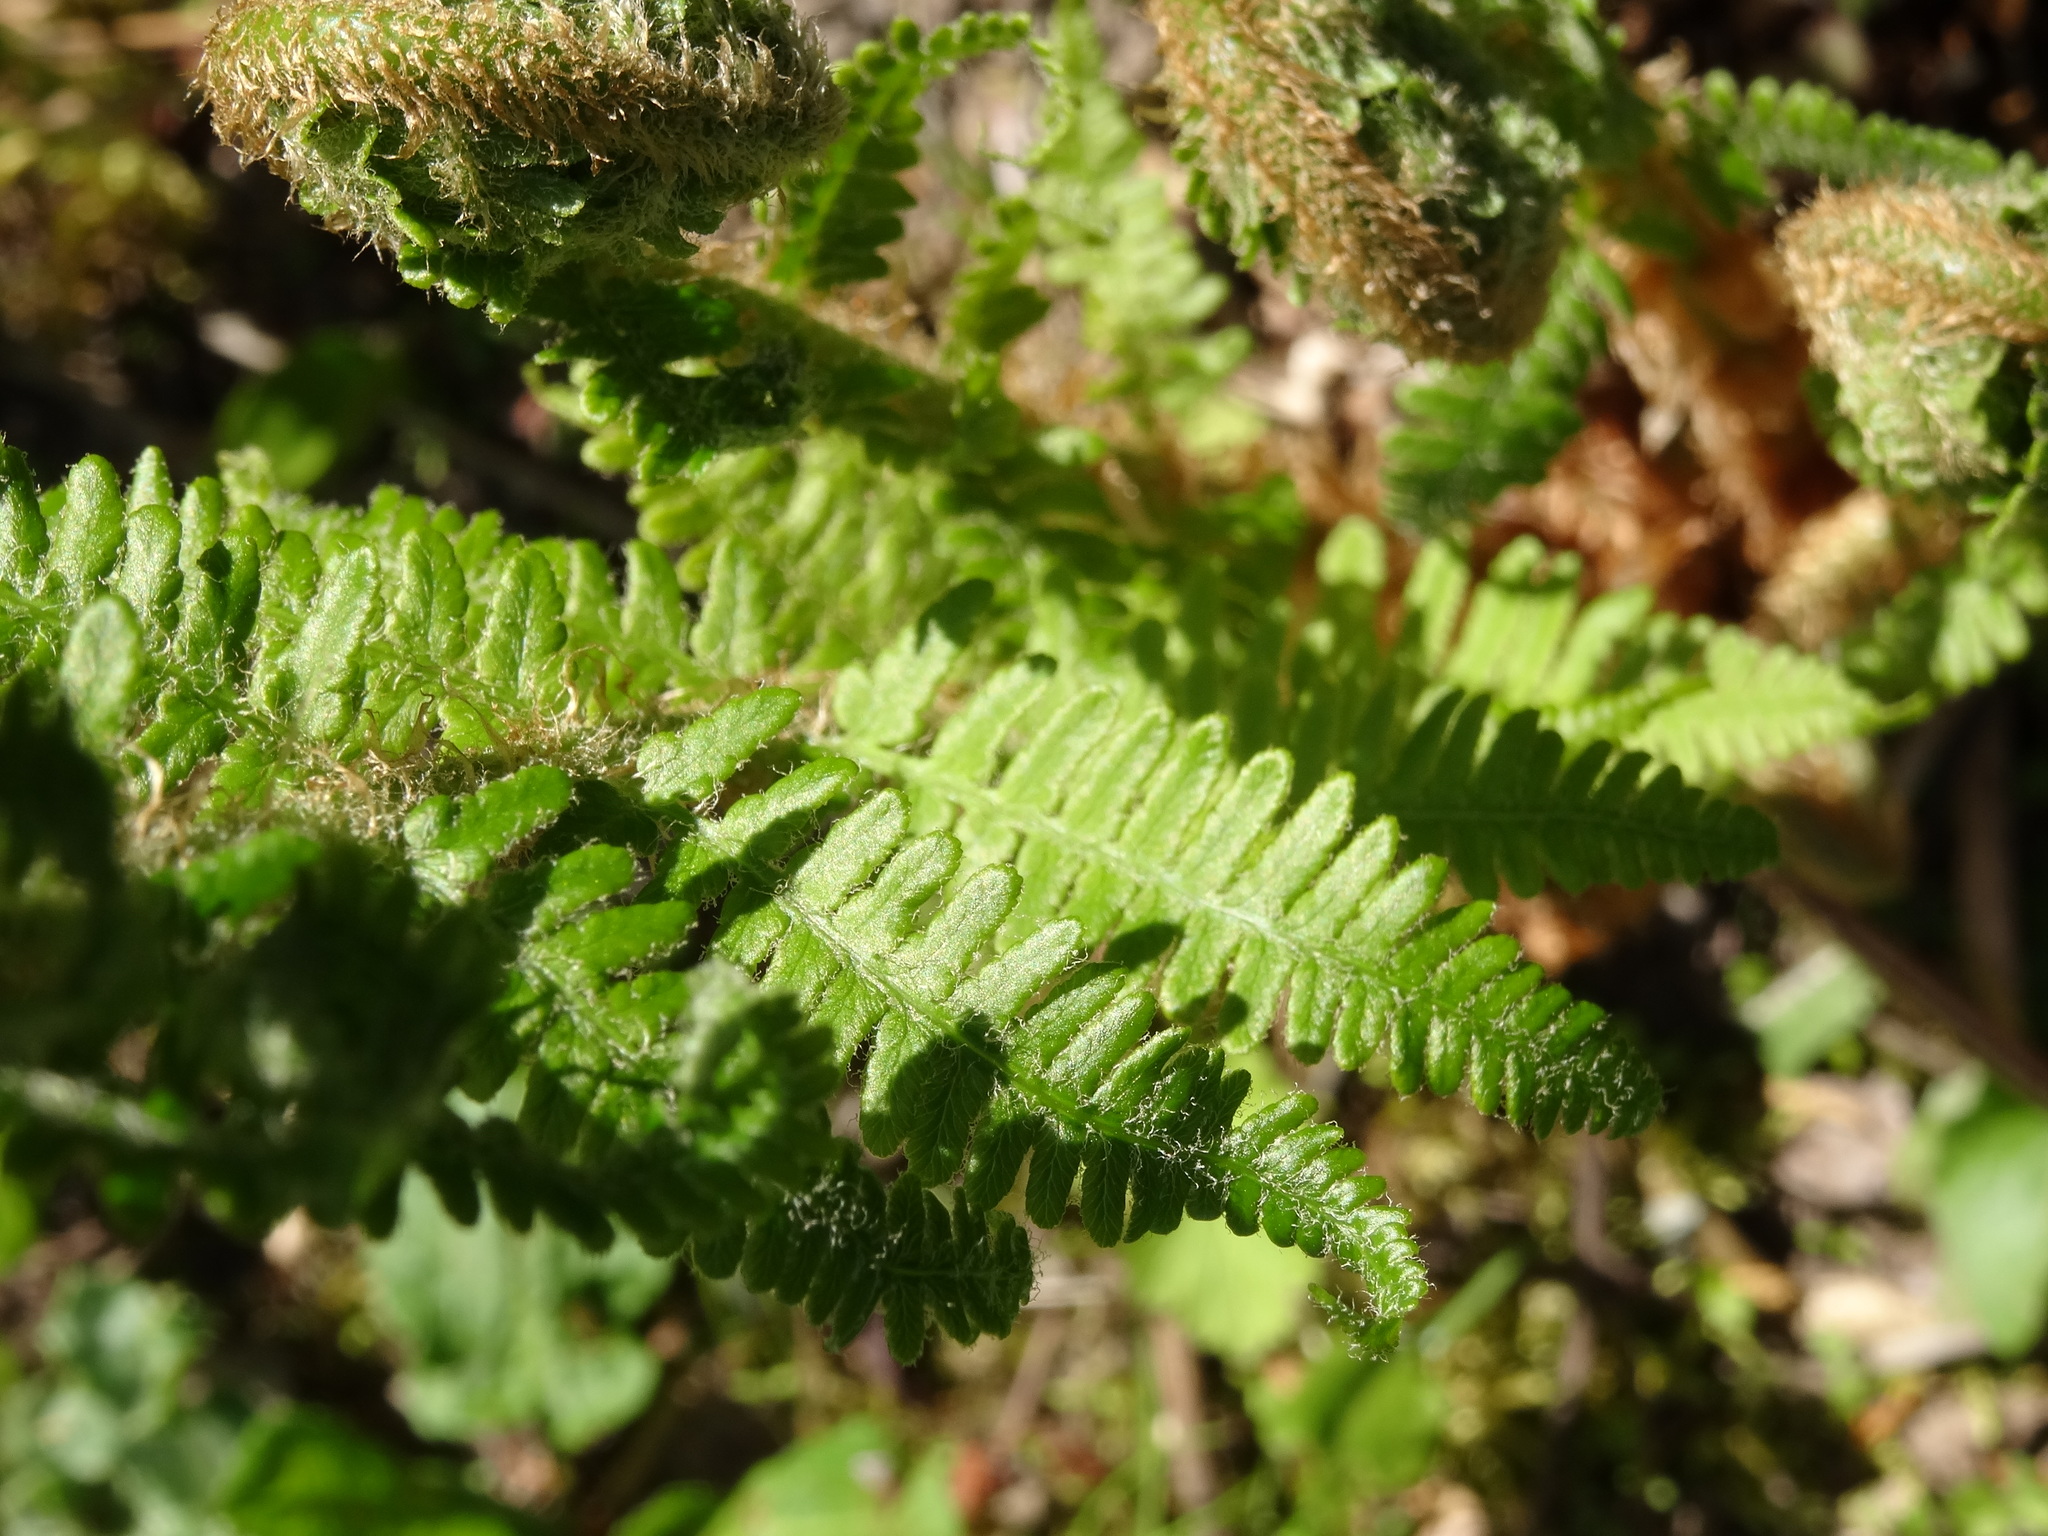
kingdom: Plantae
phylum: Tracheophyta
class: Polypodiopsida
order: Polypodiales
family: Dryopteridaceae
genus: Dryopteris
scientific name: Dryopteris filix-mas
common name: Male fern
